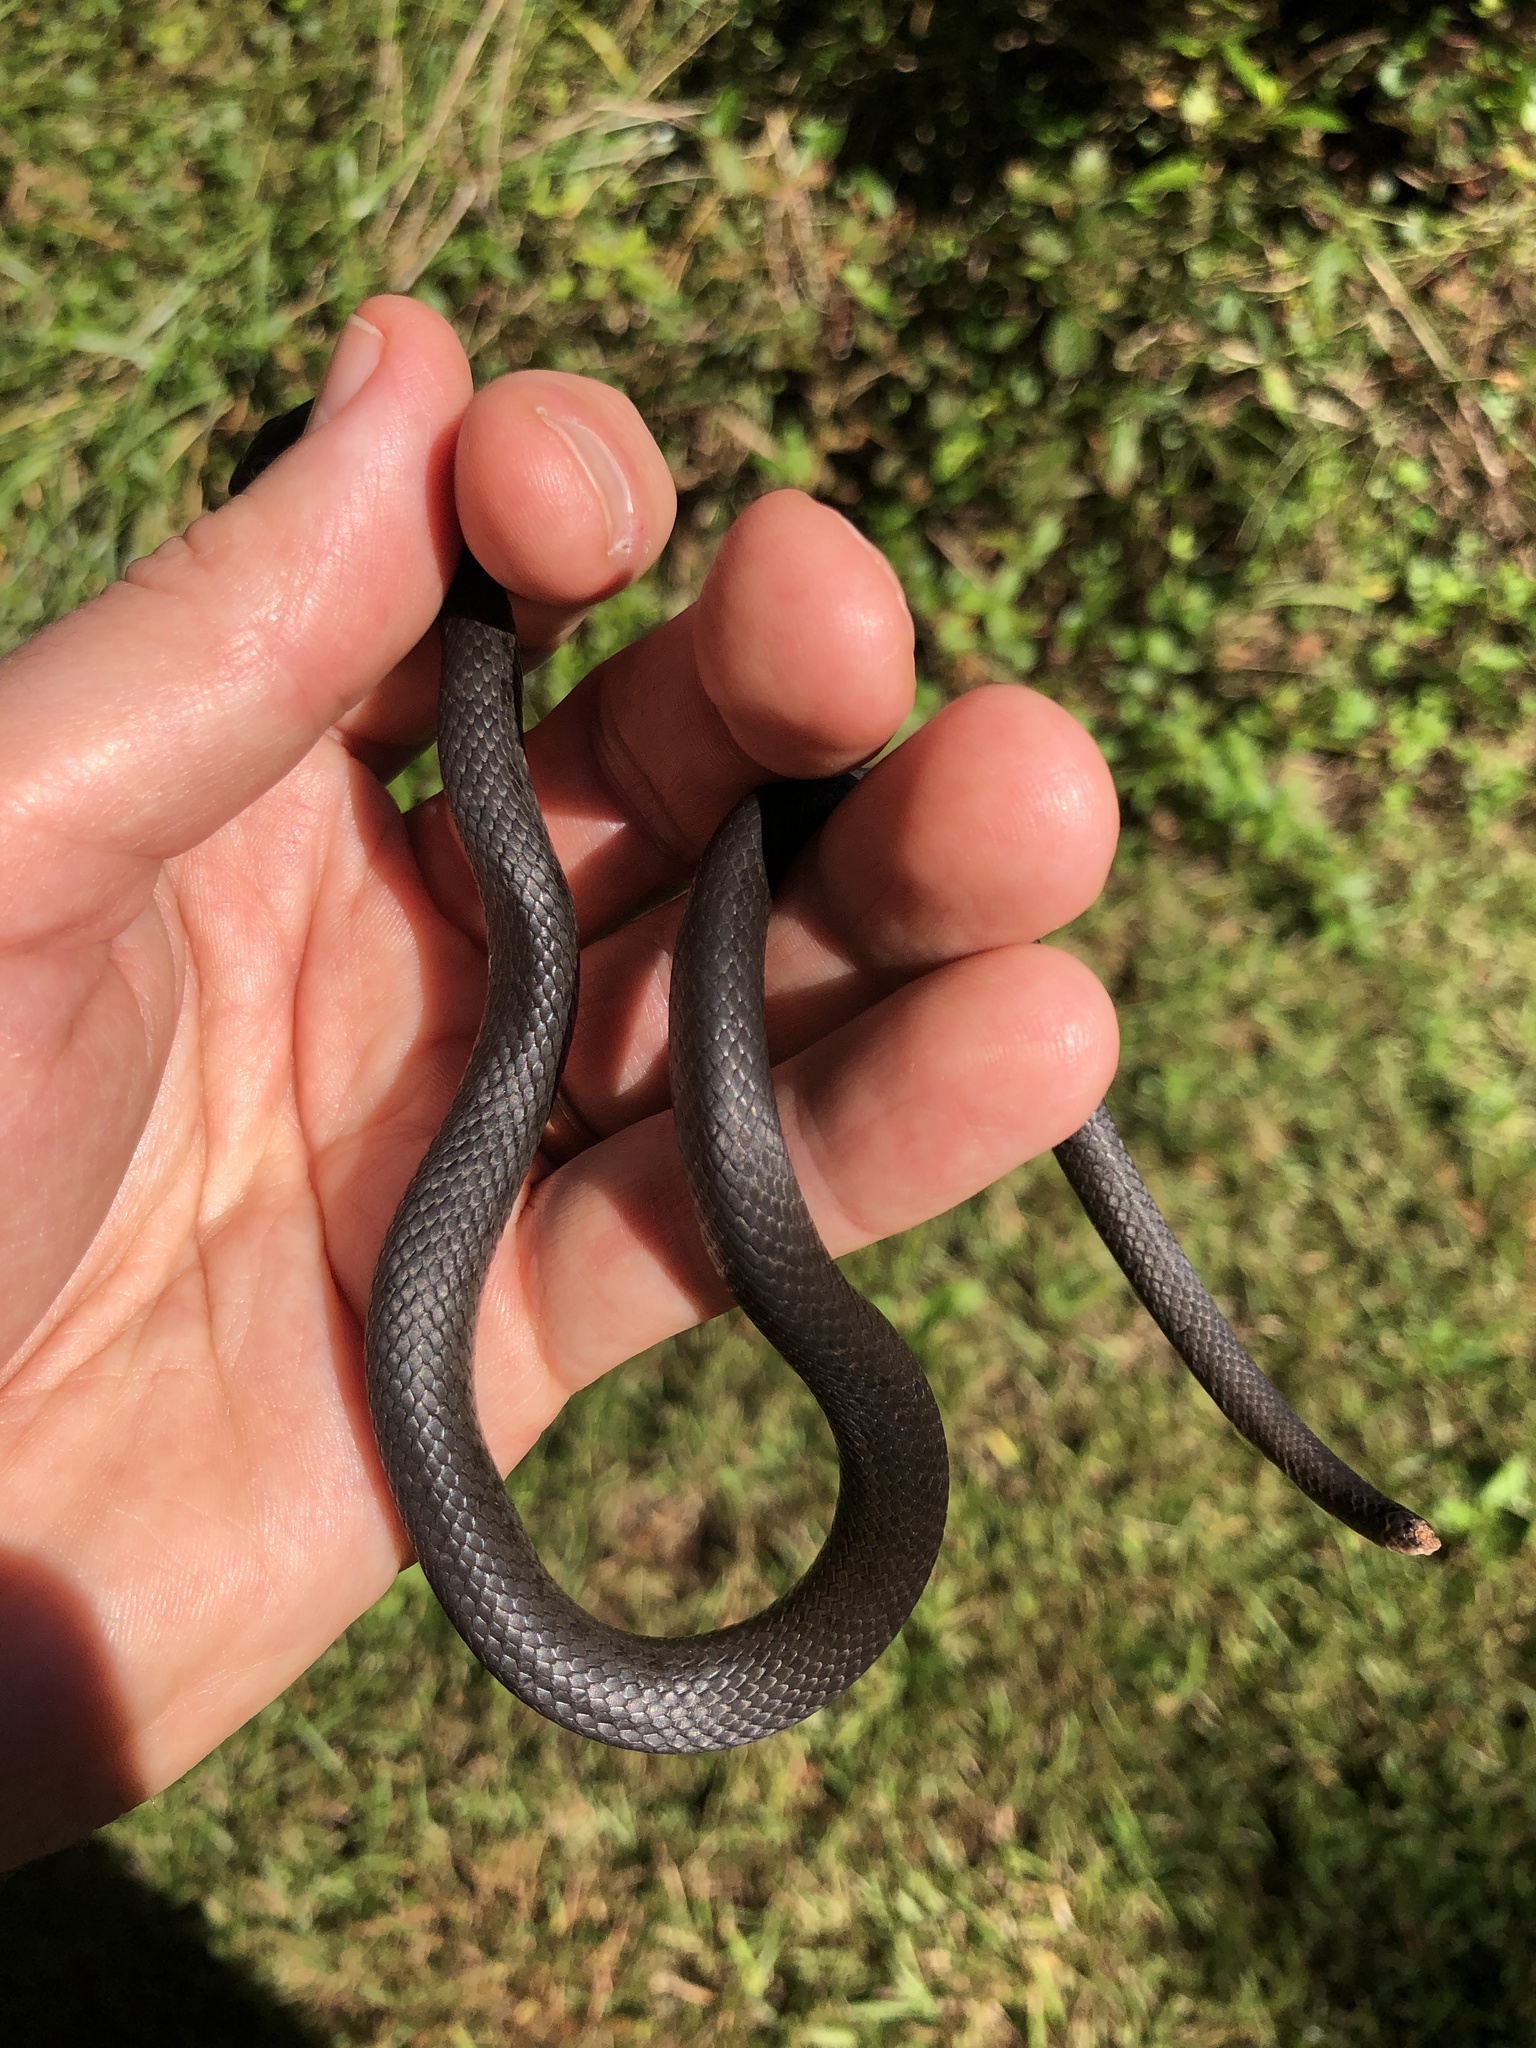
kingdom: Animalia
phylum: Chordata
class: Squamata
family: Colubridae
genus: Coluber
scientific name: Coluber constrictor
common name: Eastern racer
